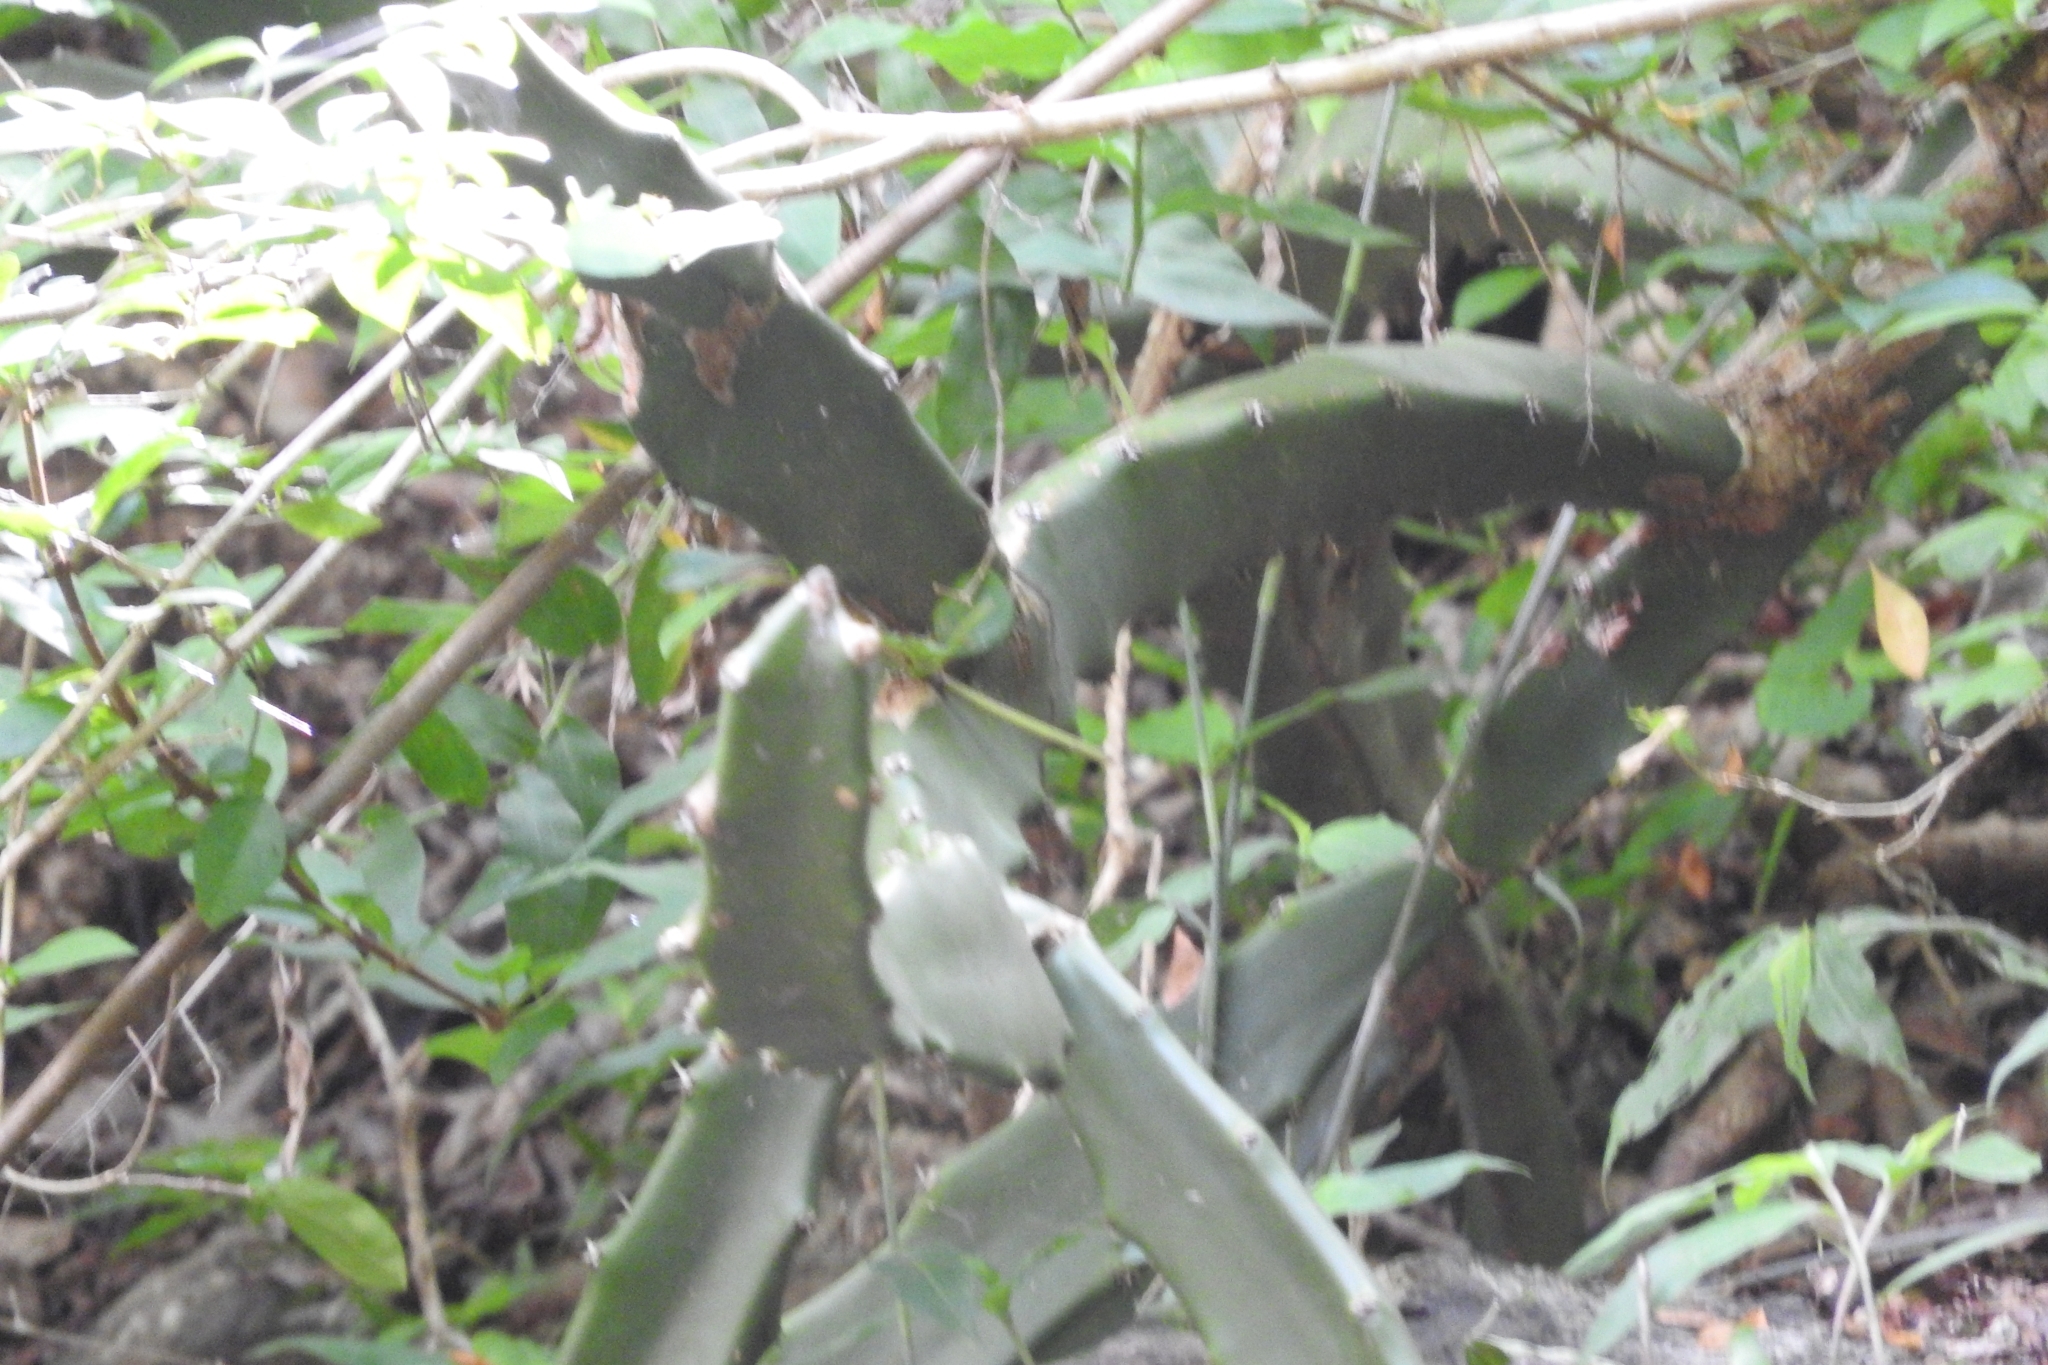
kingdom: Plantae
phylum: Tracheophyta
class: Magnoliopsida
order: Caryophyllales
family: Cactaceae
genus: Acanthocereus
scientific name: Acanthocereus tetragonus
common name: Triangle cactus
